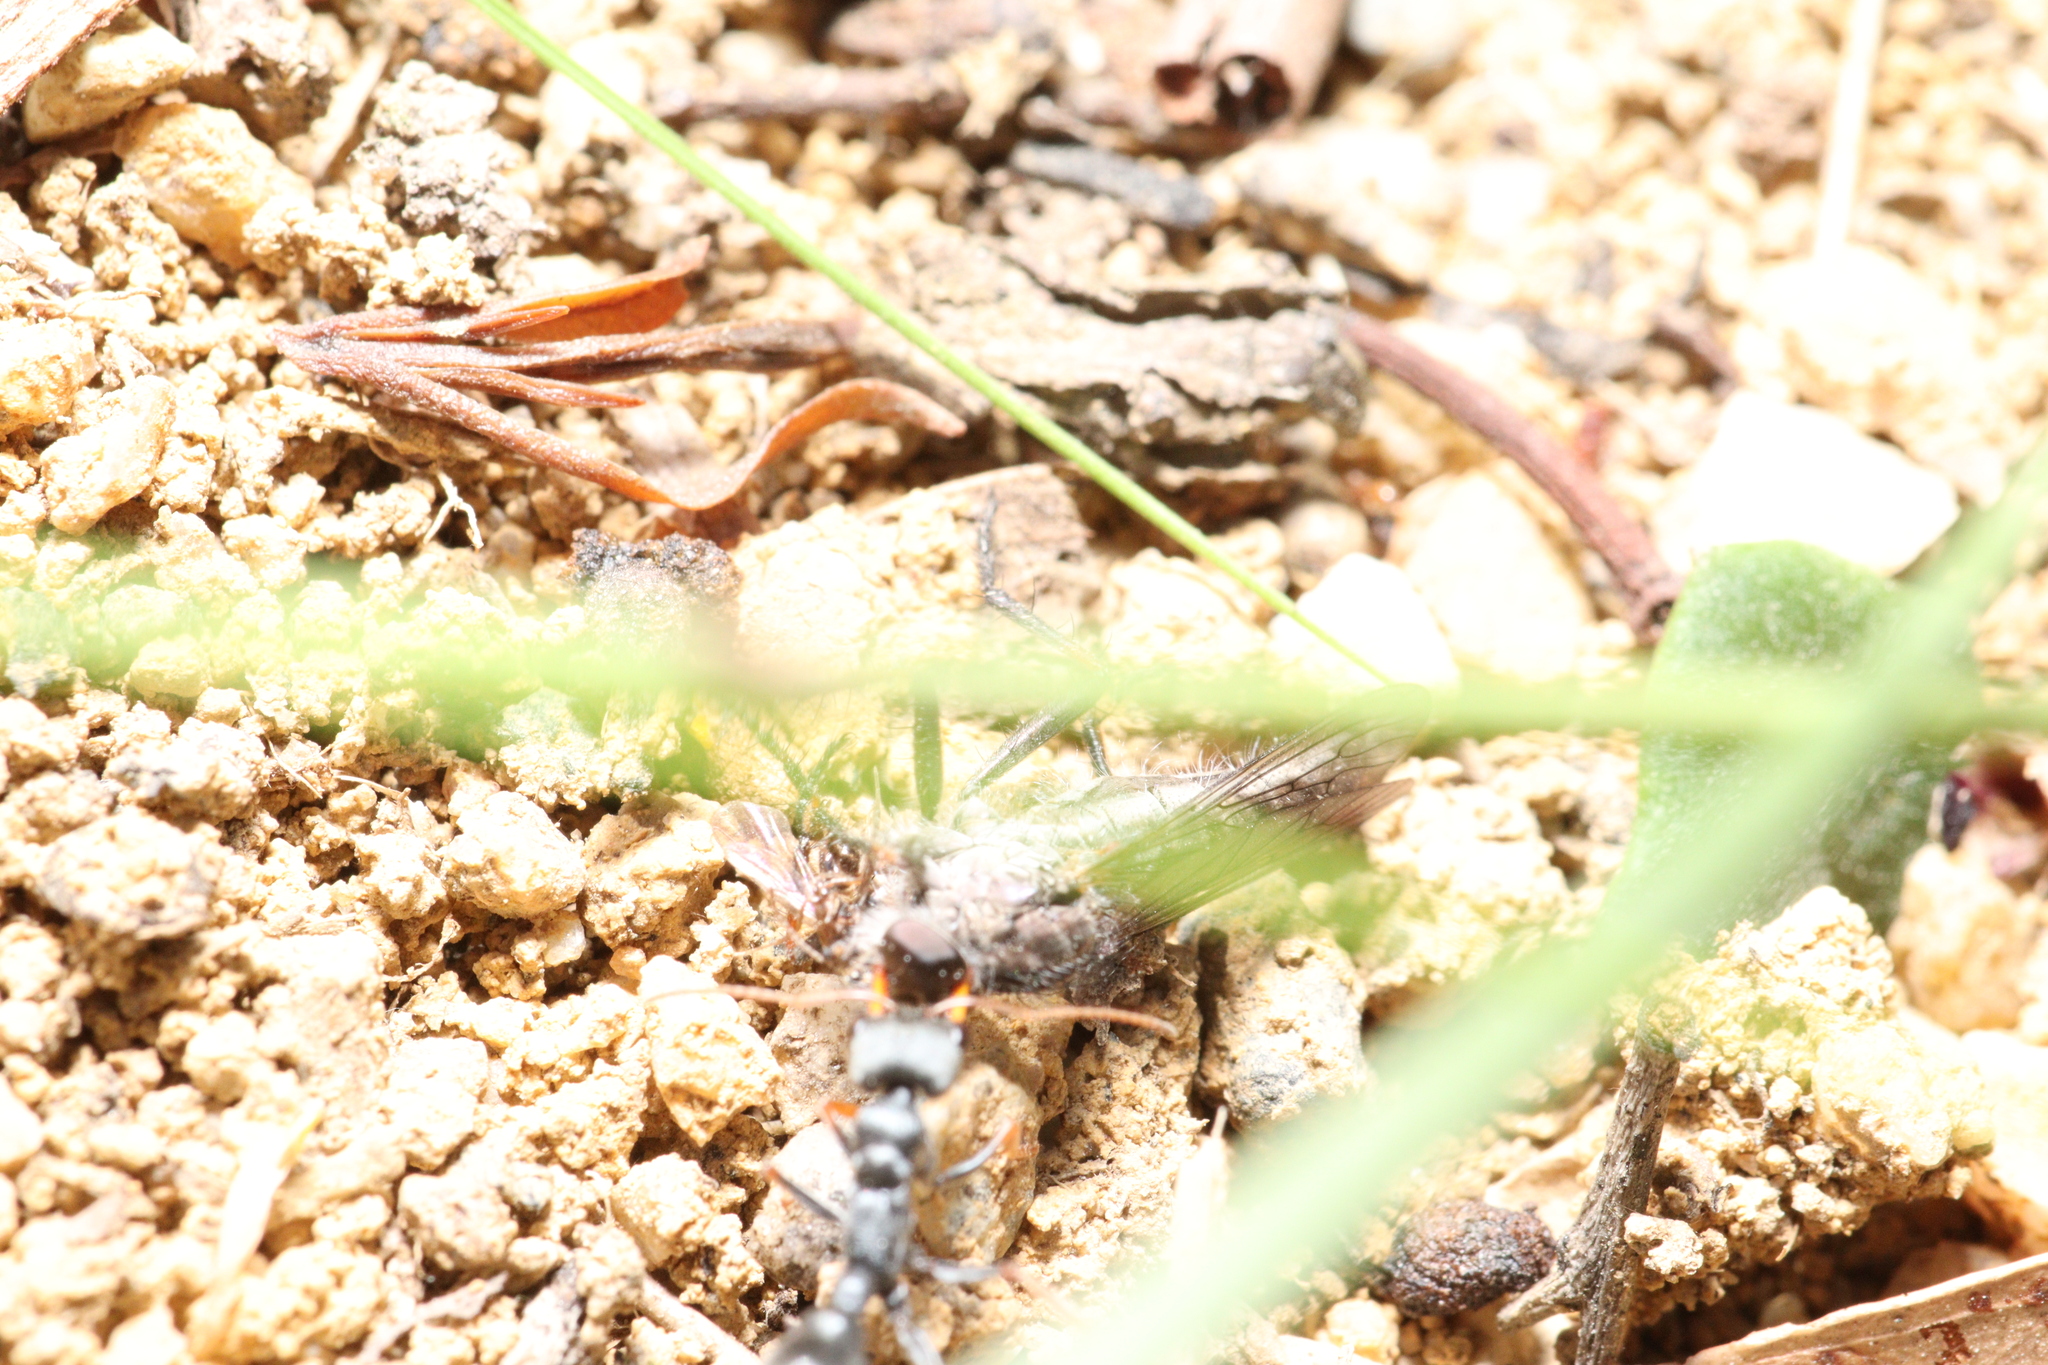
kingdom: Animalia
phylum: Arthropoda
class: Insecta
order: Hymenoptera
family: Formicidae
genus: Myrmecia
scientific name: Myrmecia pilosula
